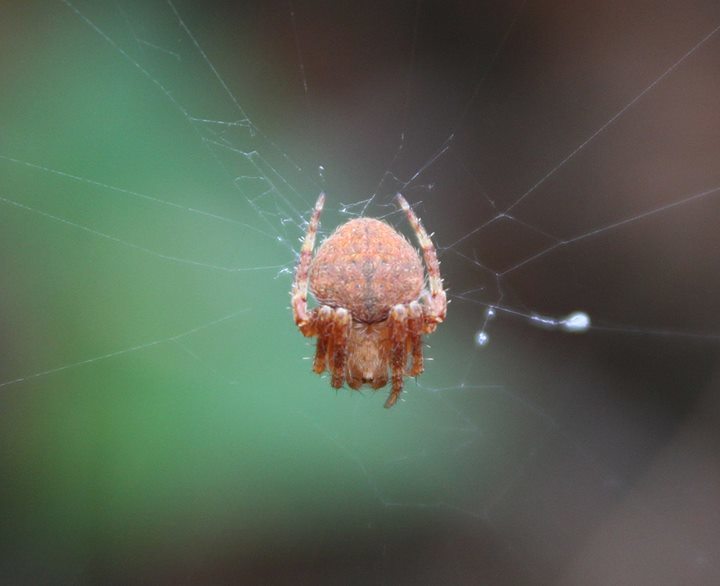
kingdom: Animalia
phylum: Arthropoda
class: Arachnida
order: Araneae
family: Araneidae
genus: Agalenatea
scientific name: Agalenatea redii
